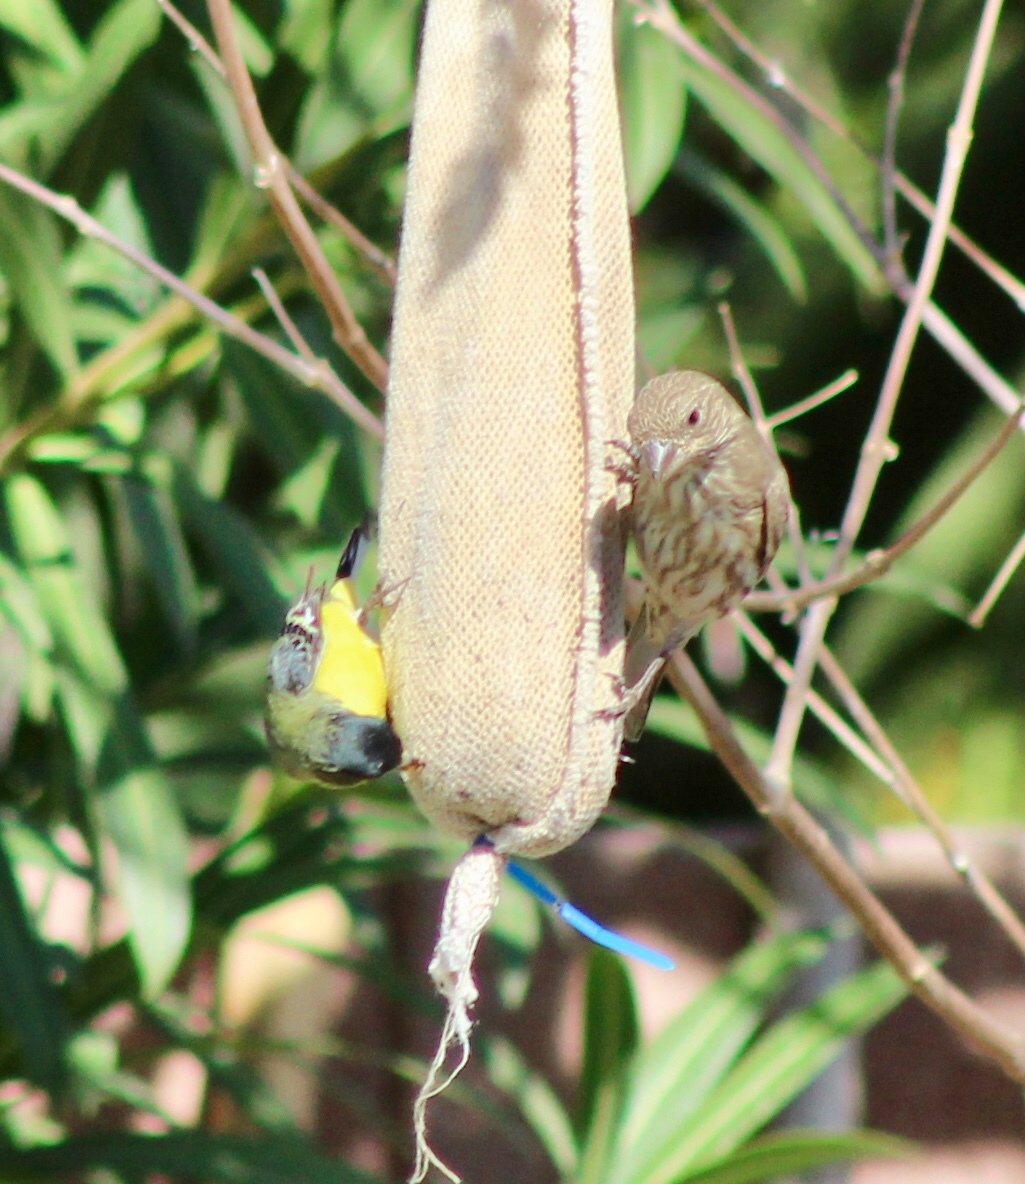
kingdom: Animalia
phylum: Chordata
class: Aves
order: Passeriformes
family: Fringillidae
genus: Spinus
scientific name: Spinus psaltria
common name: Lesser goldfinch
